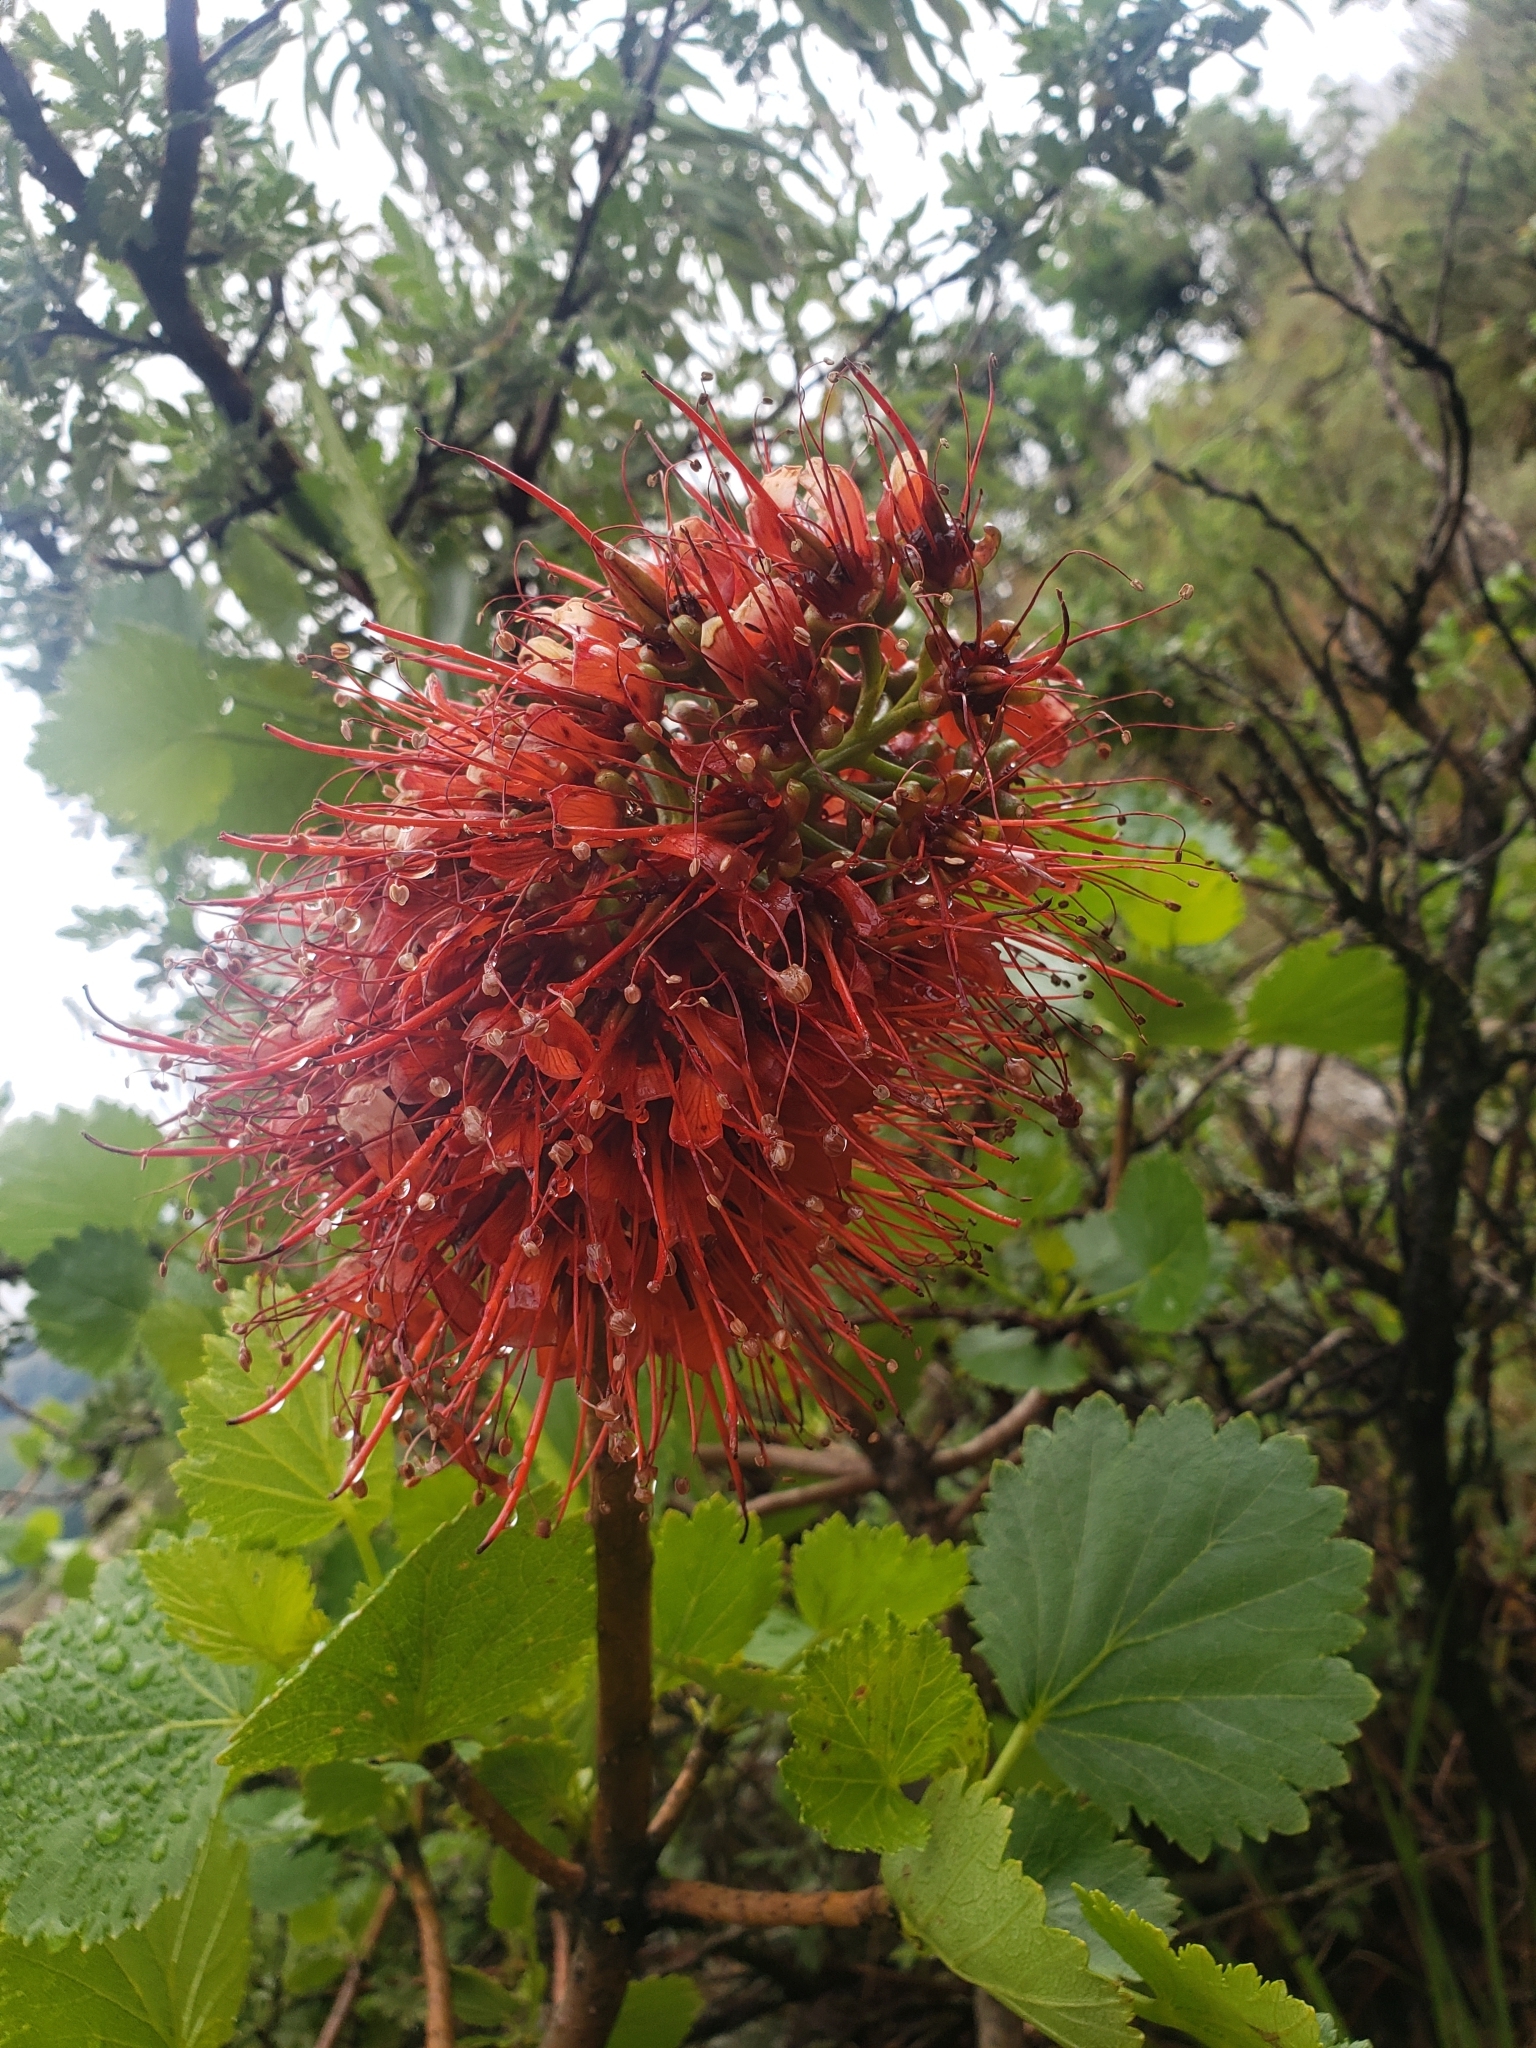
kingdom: Plantae
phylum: Tracheophyta
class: Magnoliopsida
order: Geraniales
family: Francoaceae
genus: Greyia
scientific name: Greyia sutherlandii
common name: Glossy bottlebrush
